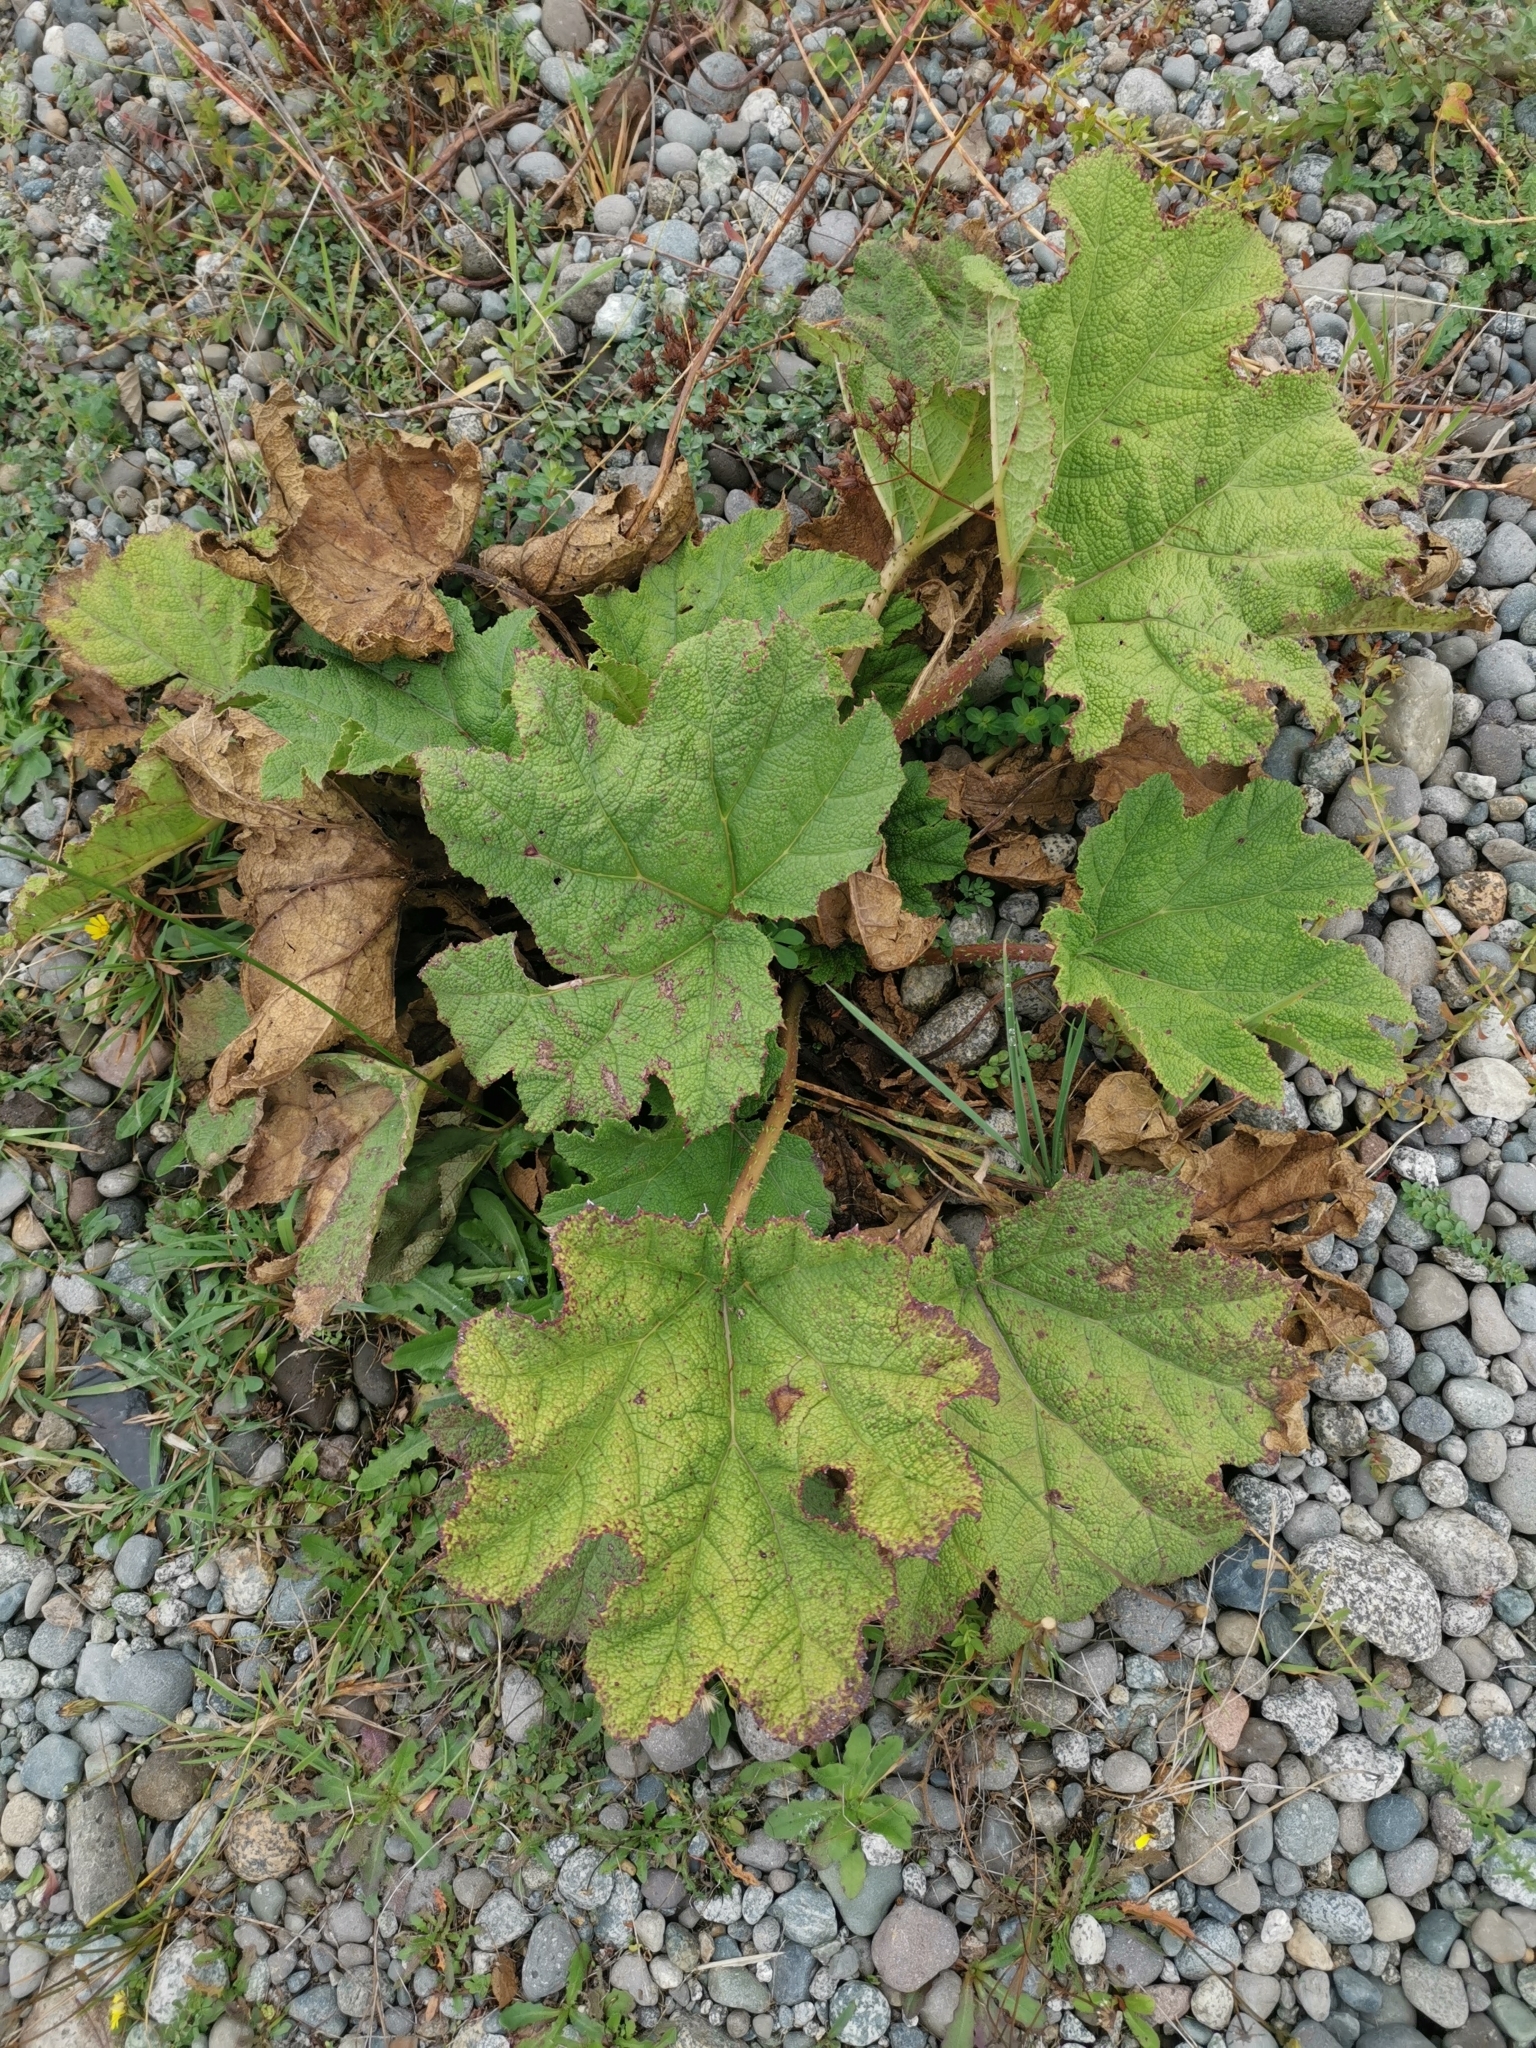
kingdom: Plantae
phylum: Tracheophyta
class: Magnoliopsida
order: Gunnerales
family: Gunneraceae
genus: Gunnera
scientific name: Gunnera tinctoria
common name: Giant-rhubarb
